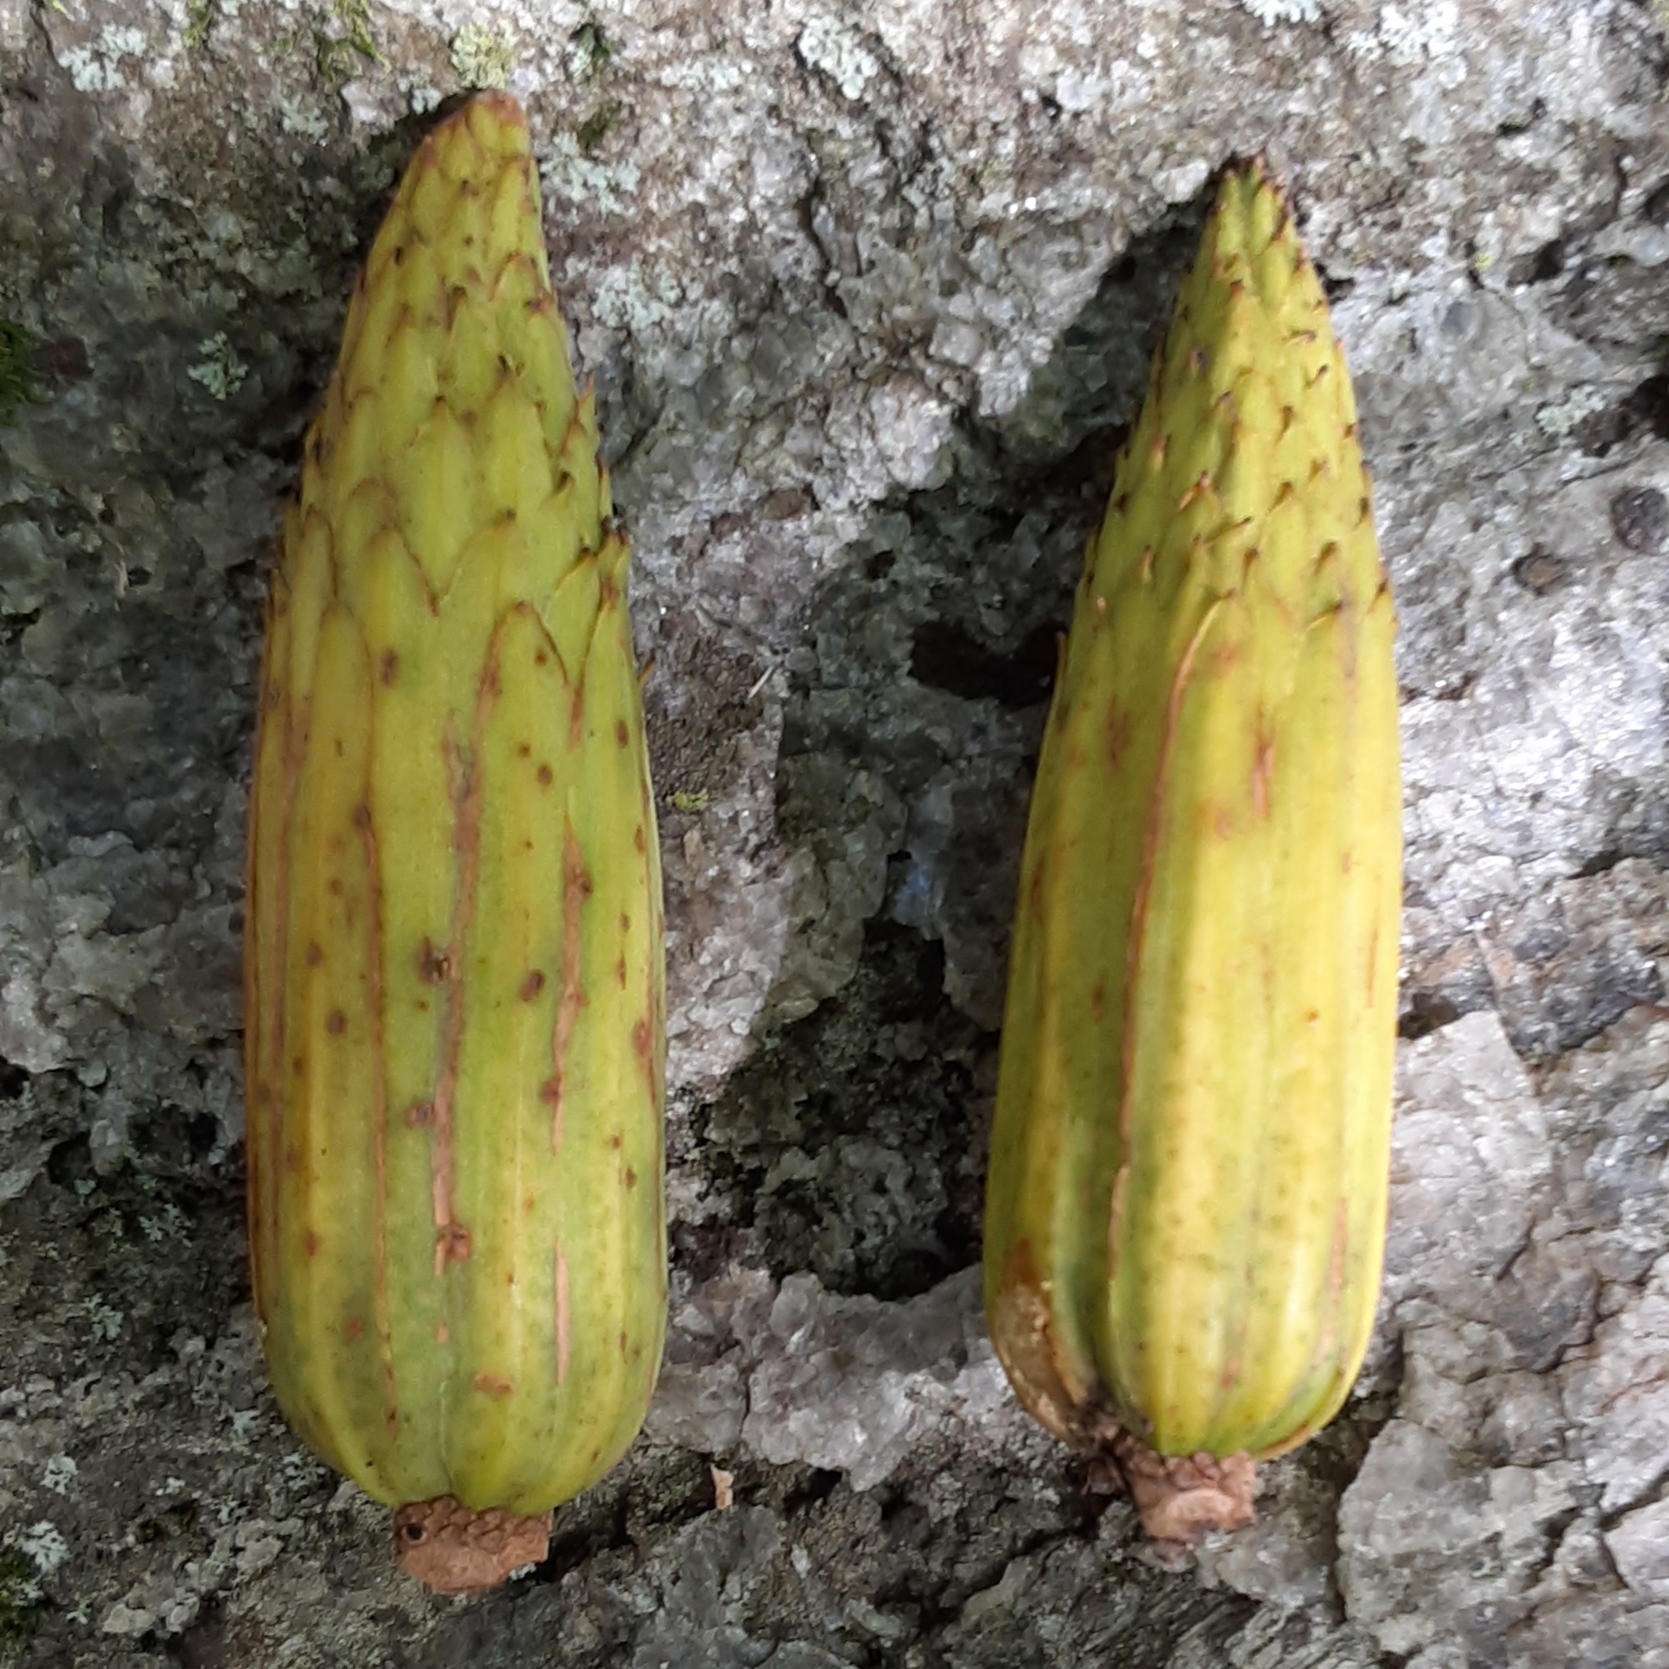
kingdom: Plantae
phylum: Tracheophyta
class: Magnoliopsida
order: Magnoliales
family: Magnoliaceae
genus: Liriodendron
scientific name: Liriodendron tulipifera
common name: Tulip tree
